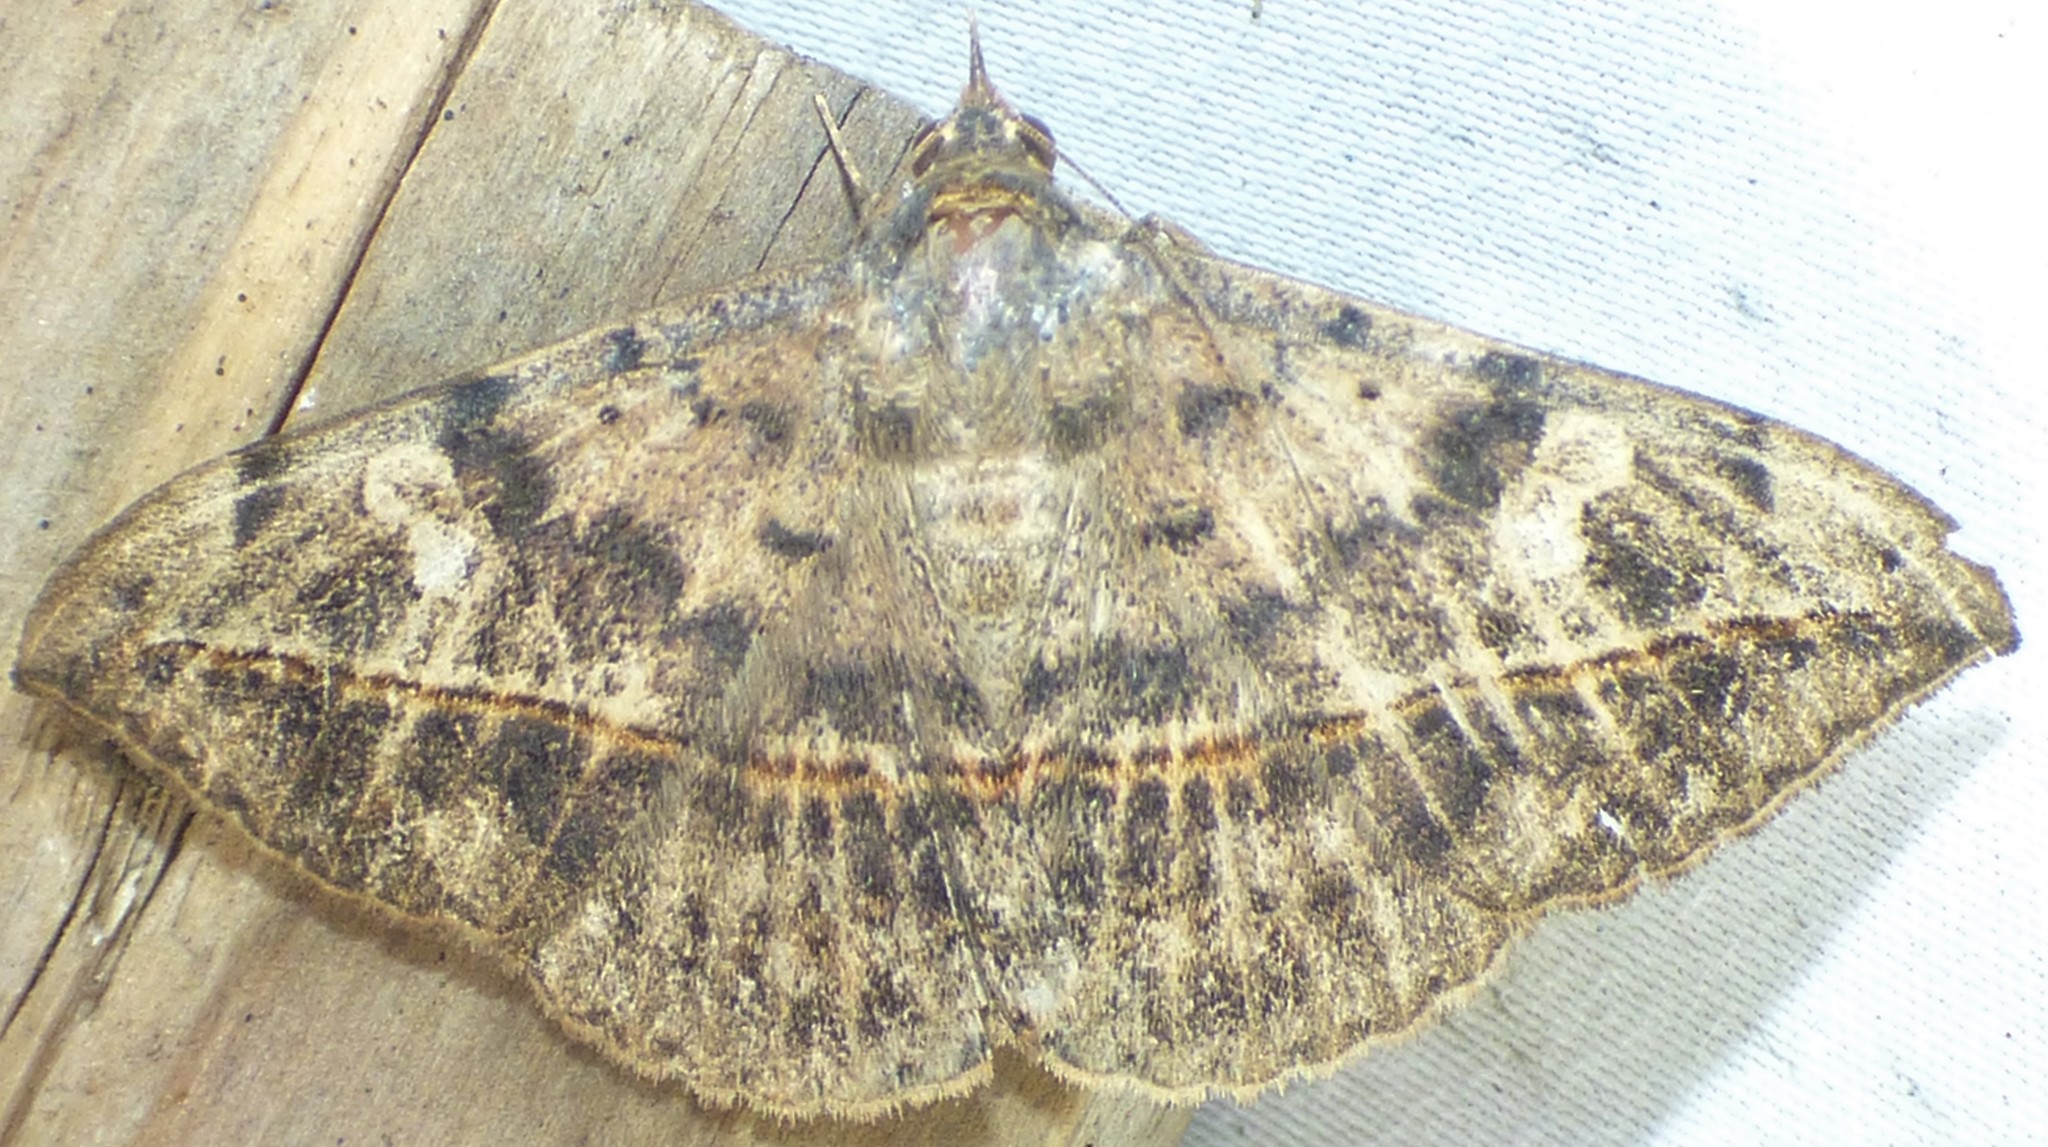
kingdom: Animalia
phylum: Arthropoda
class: Insecta
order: Lepidoptera
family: Erebidae
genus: Anticarsia
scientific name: Anticarsia gemmatalis
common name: Cutworm moth
